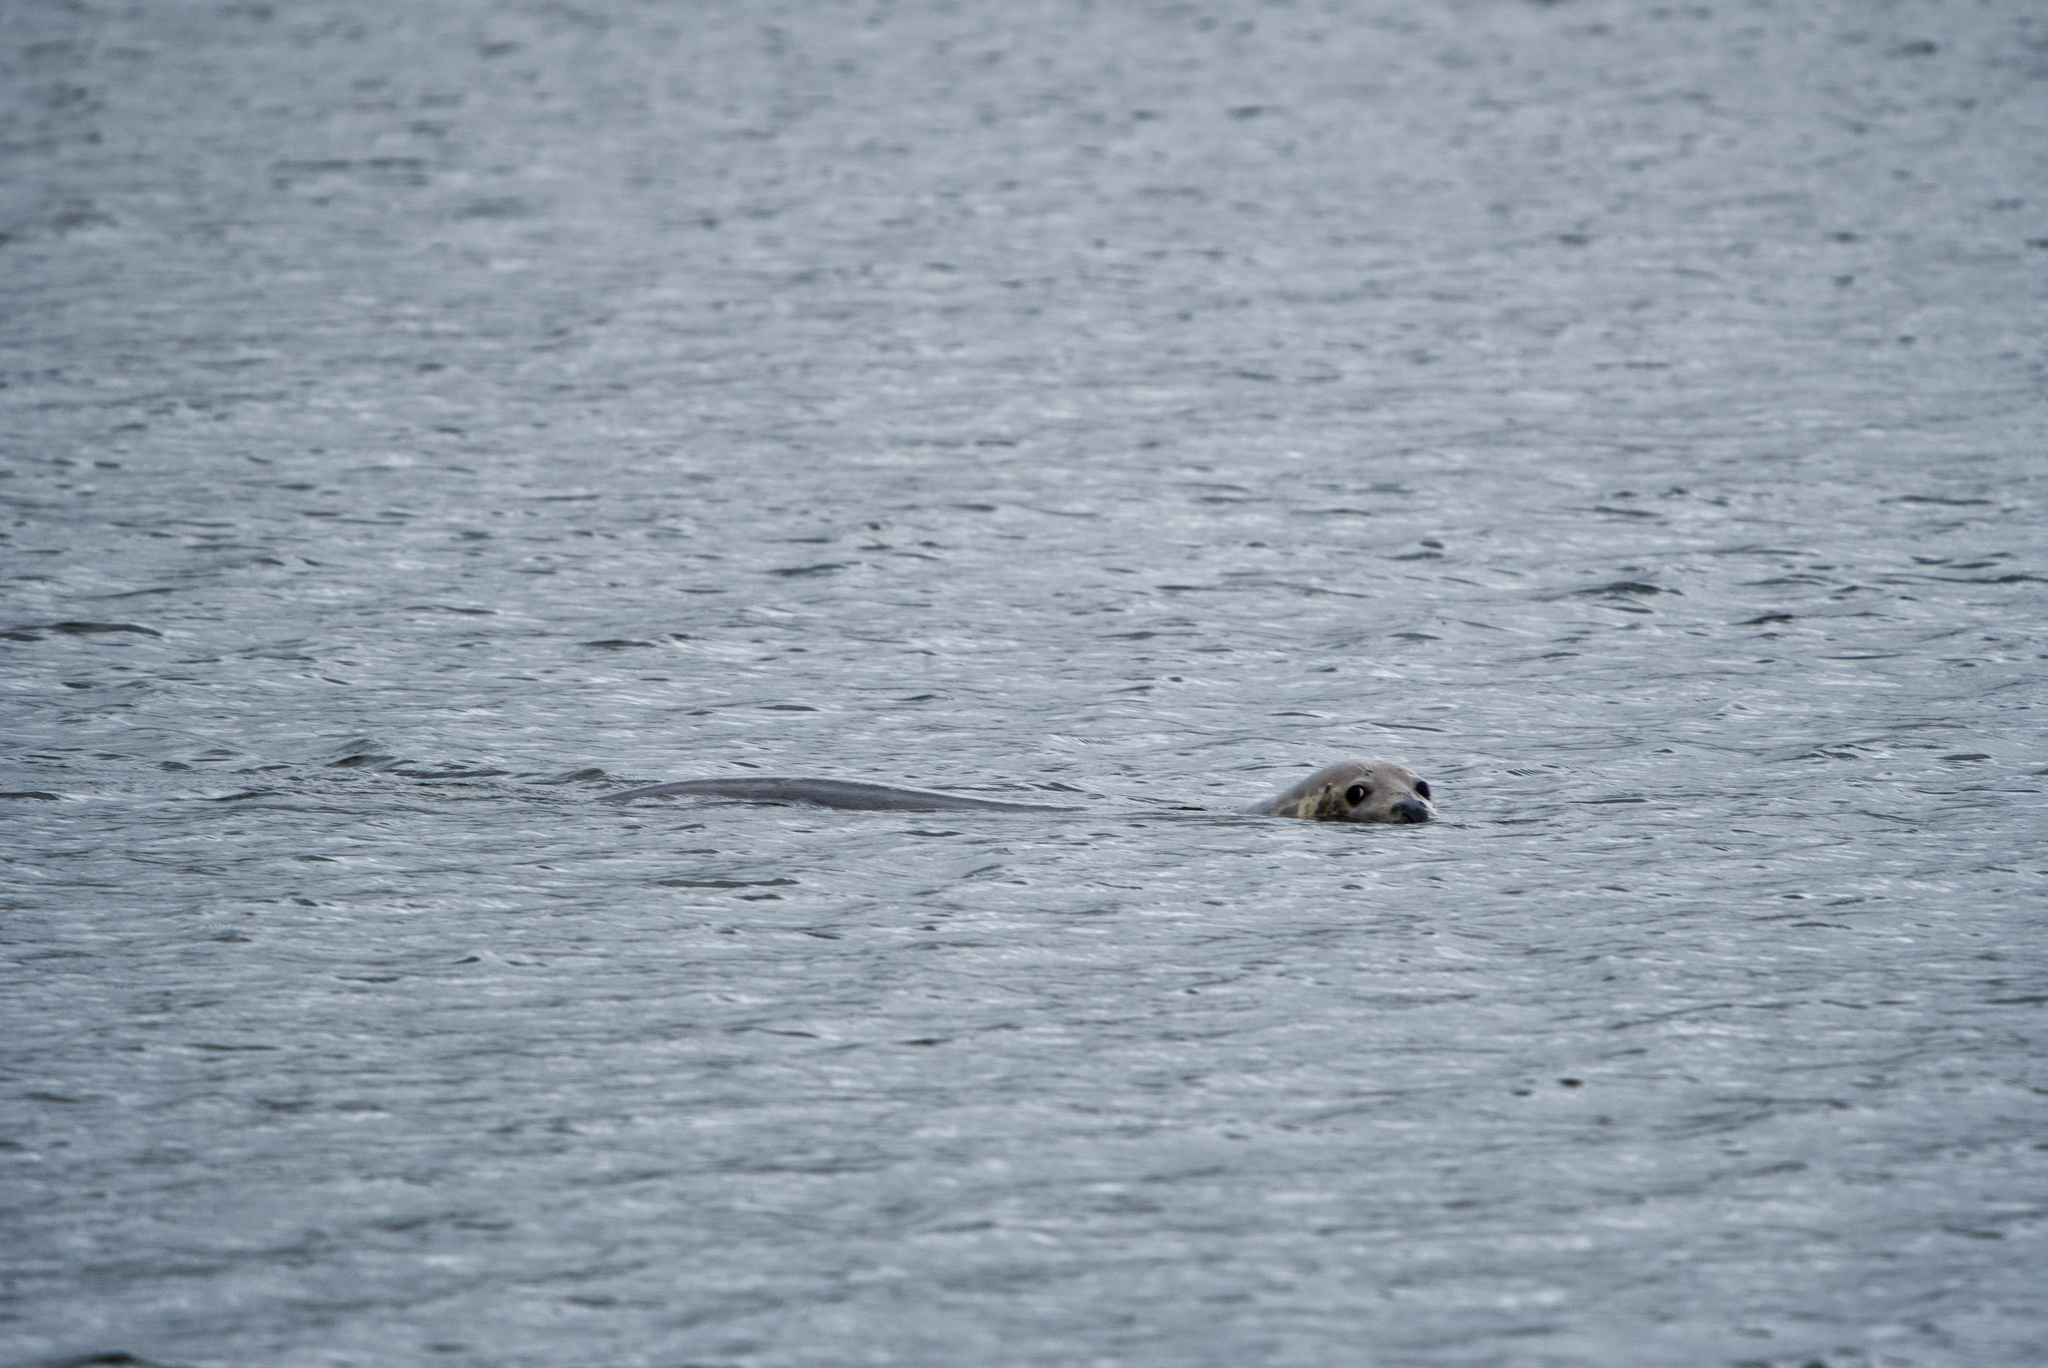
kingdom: Animalia
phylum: Chordata
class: Mammalia
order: Carnivora
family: Phocidae
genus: Halichoerus
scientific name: Halichoerus grypus
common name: Grey seal
